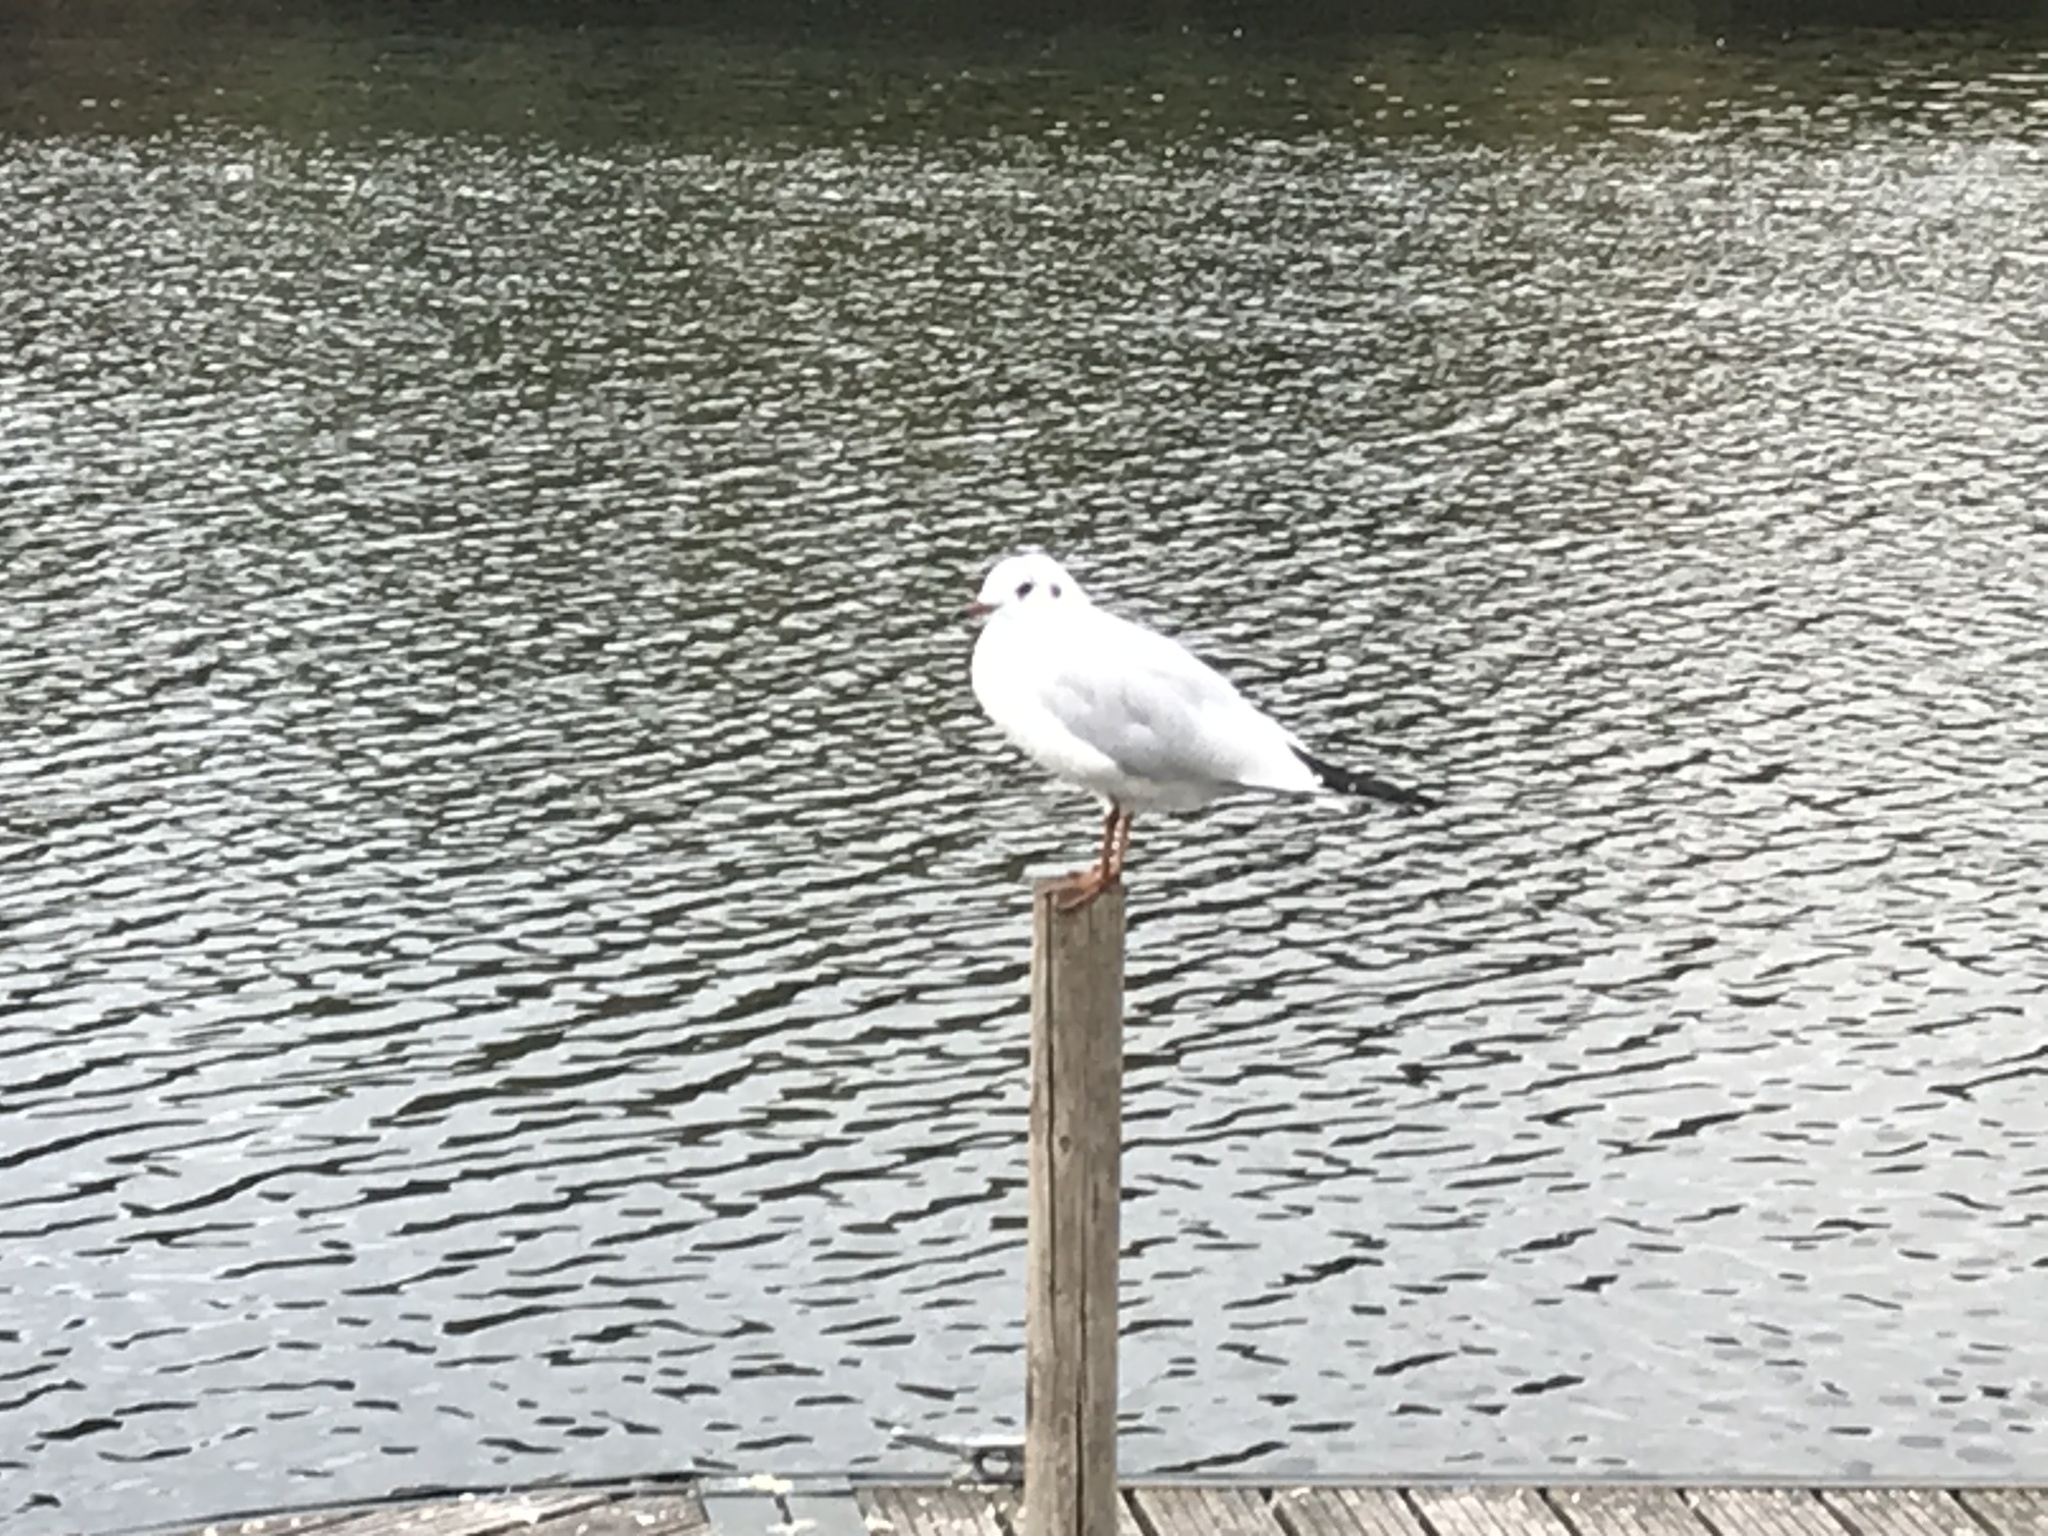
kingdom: Animalia
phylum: Chordata
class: Aves
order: Charadriiformes
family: Laridae
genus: Chroicocephalus
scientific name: Chroicocephalus ridibundus
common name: Black-headed gull
